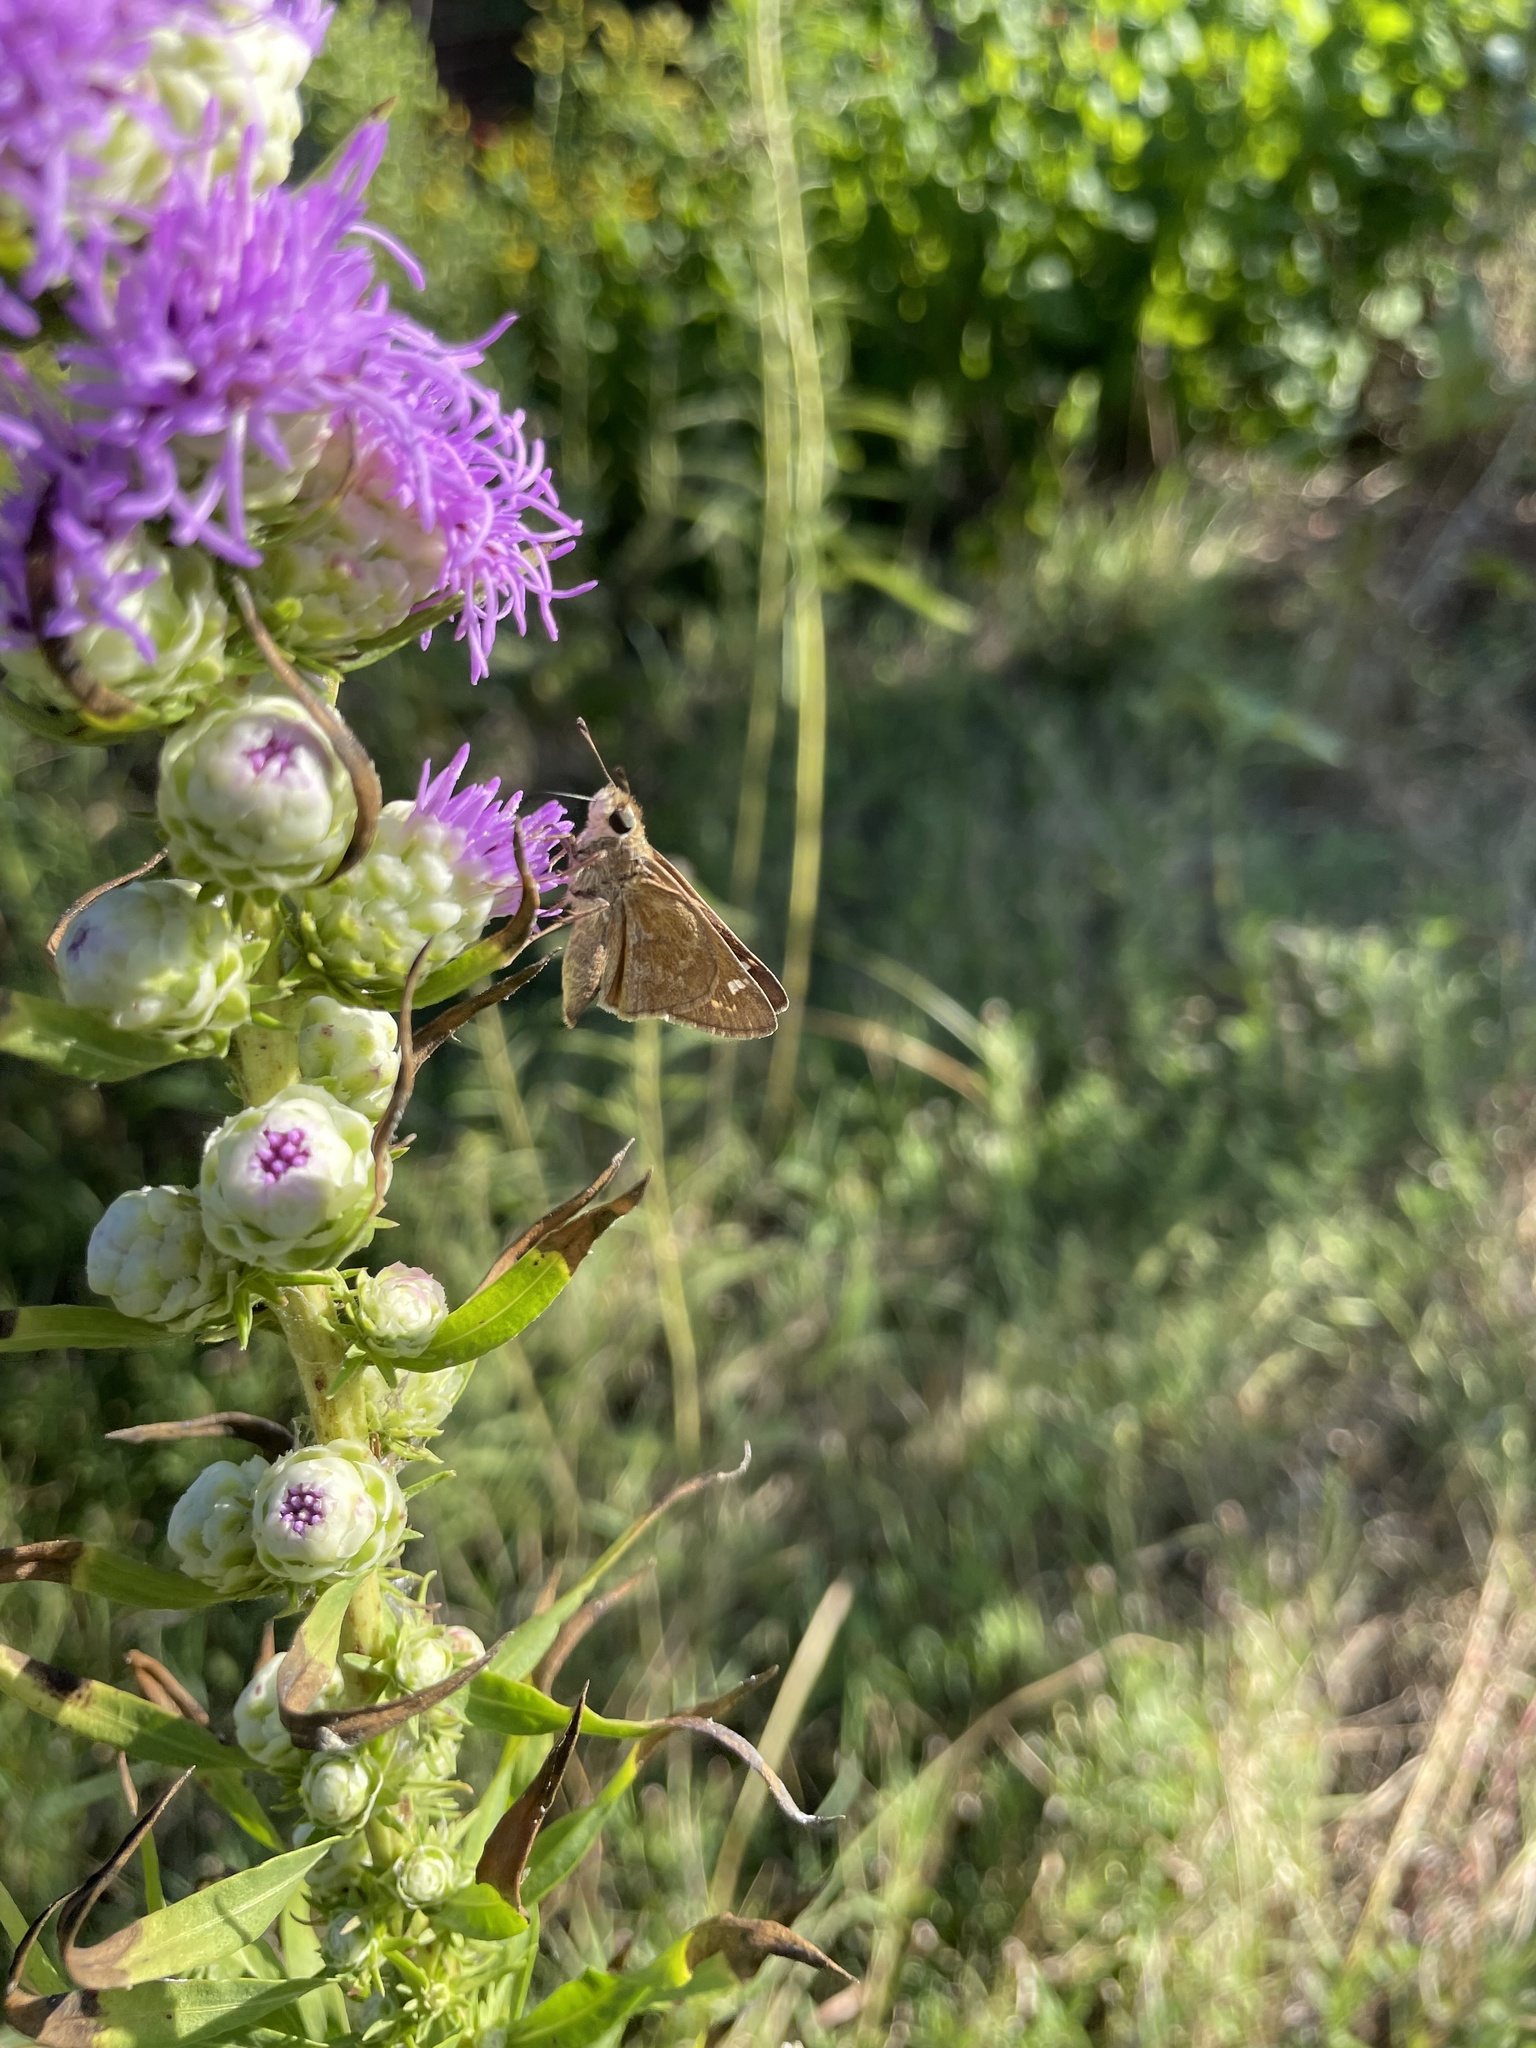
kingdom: Animalia
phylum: Arthropoda
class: Insecta
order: Lepidoptera
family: Hesperiidae
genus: Atalopedes
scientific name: Atalopedes
